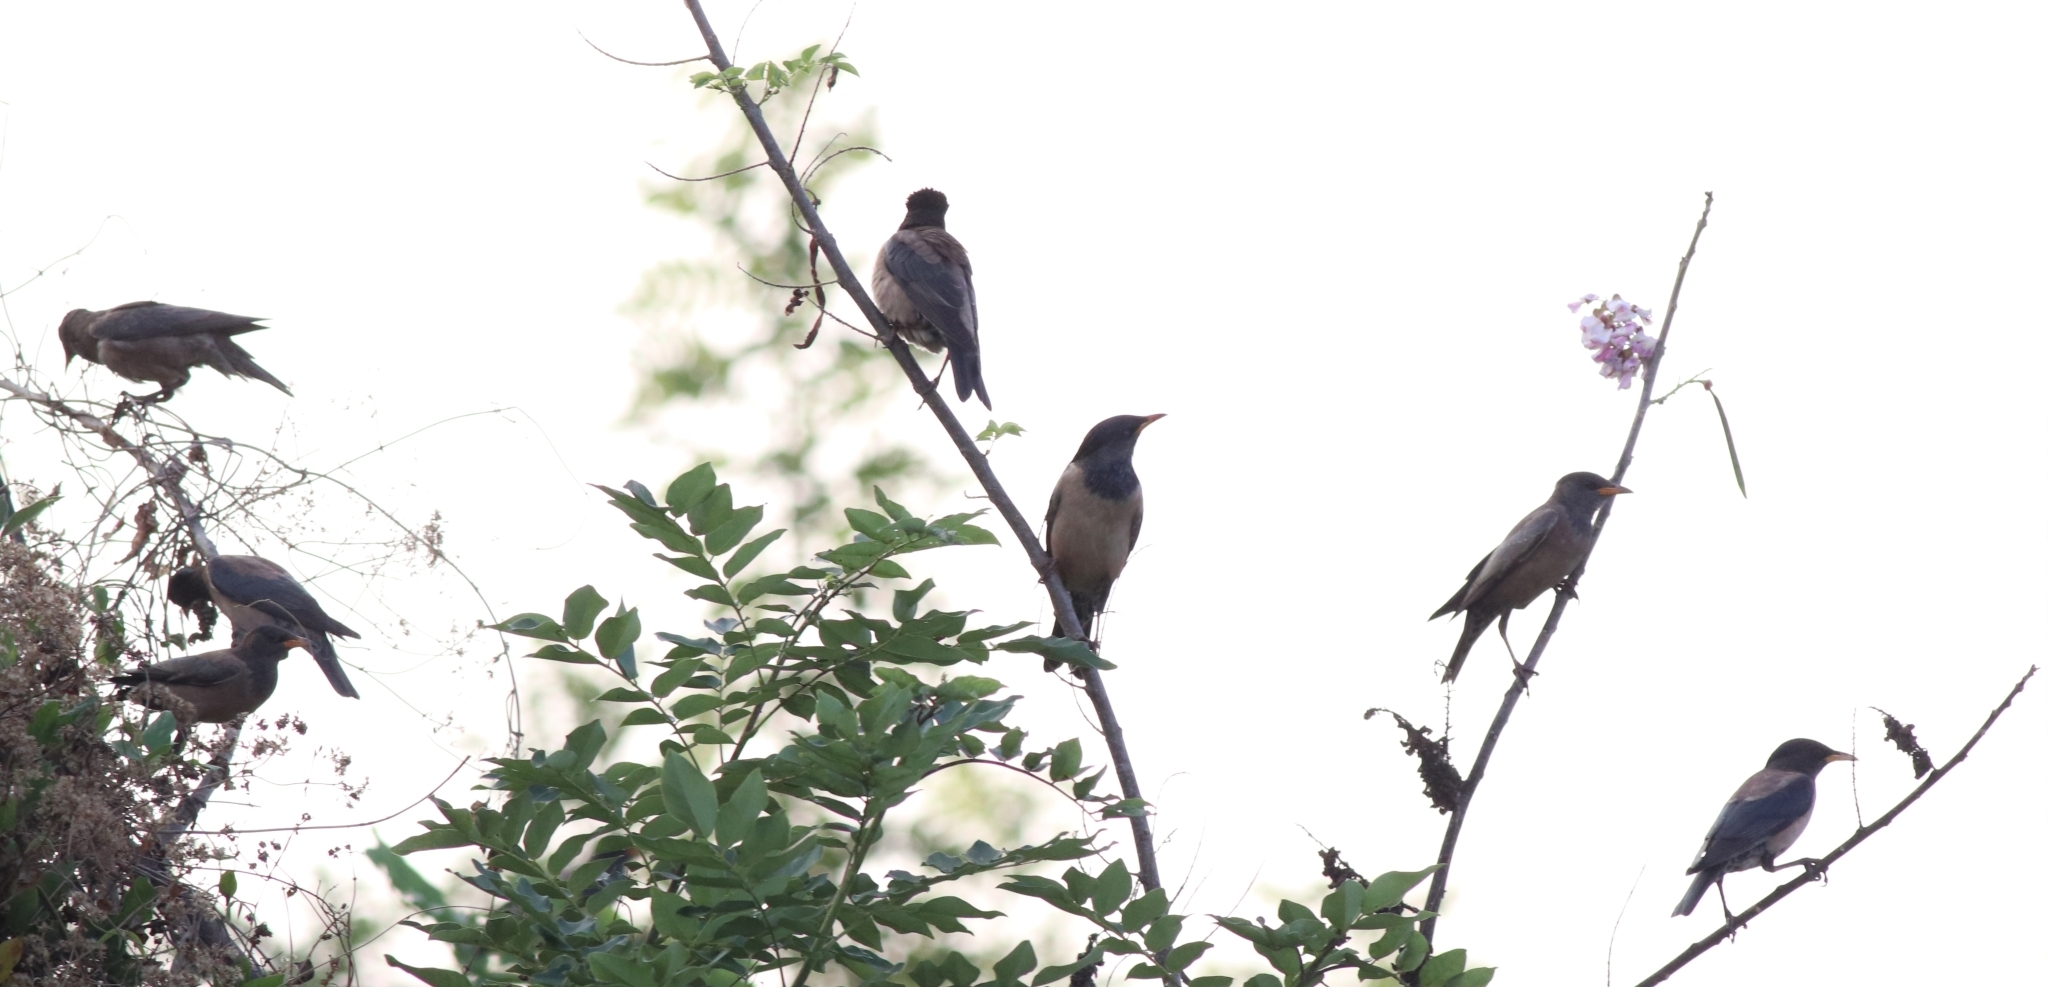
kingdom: Animalia
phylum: Chordata
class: Aves
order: Passeriformes
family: Sturnidae
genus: Pastor
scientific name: Pastor roseus
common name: Rosy starling
